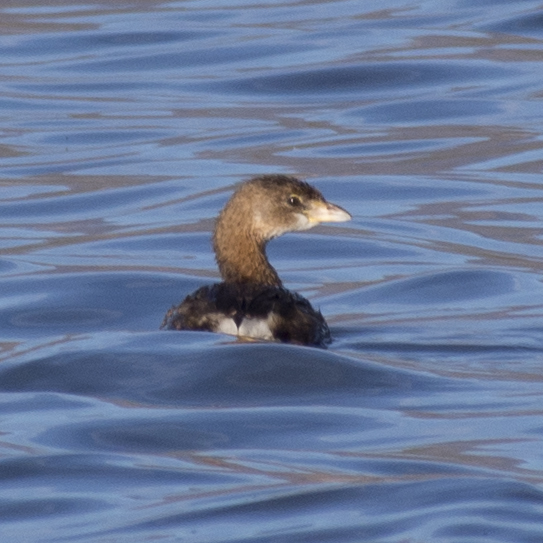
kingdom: Animalia
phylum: Chordata
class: Aves
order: Podicipediformes
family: Podicipedidae
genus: Podilymbus
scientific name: Podilymbus podiceps
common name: Pied-billed grebe
